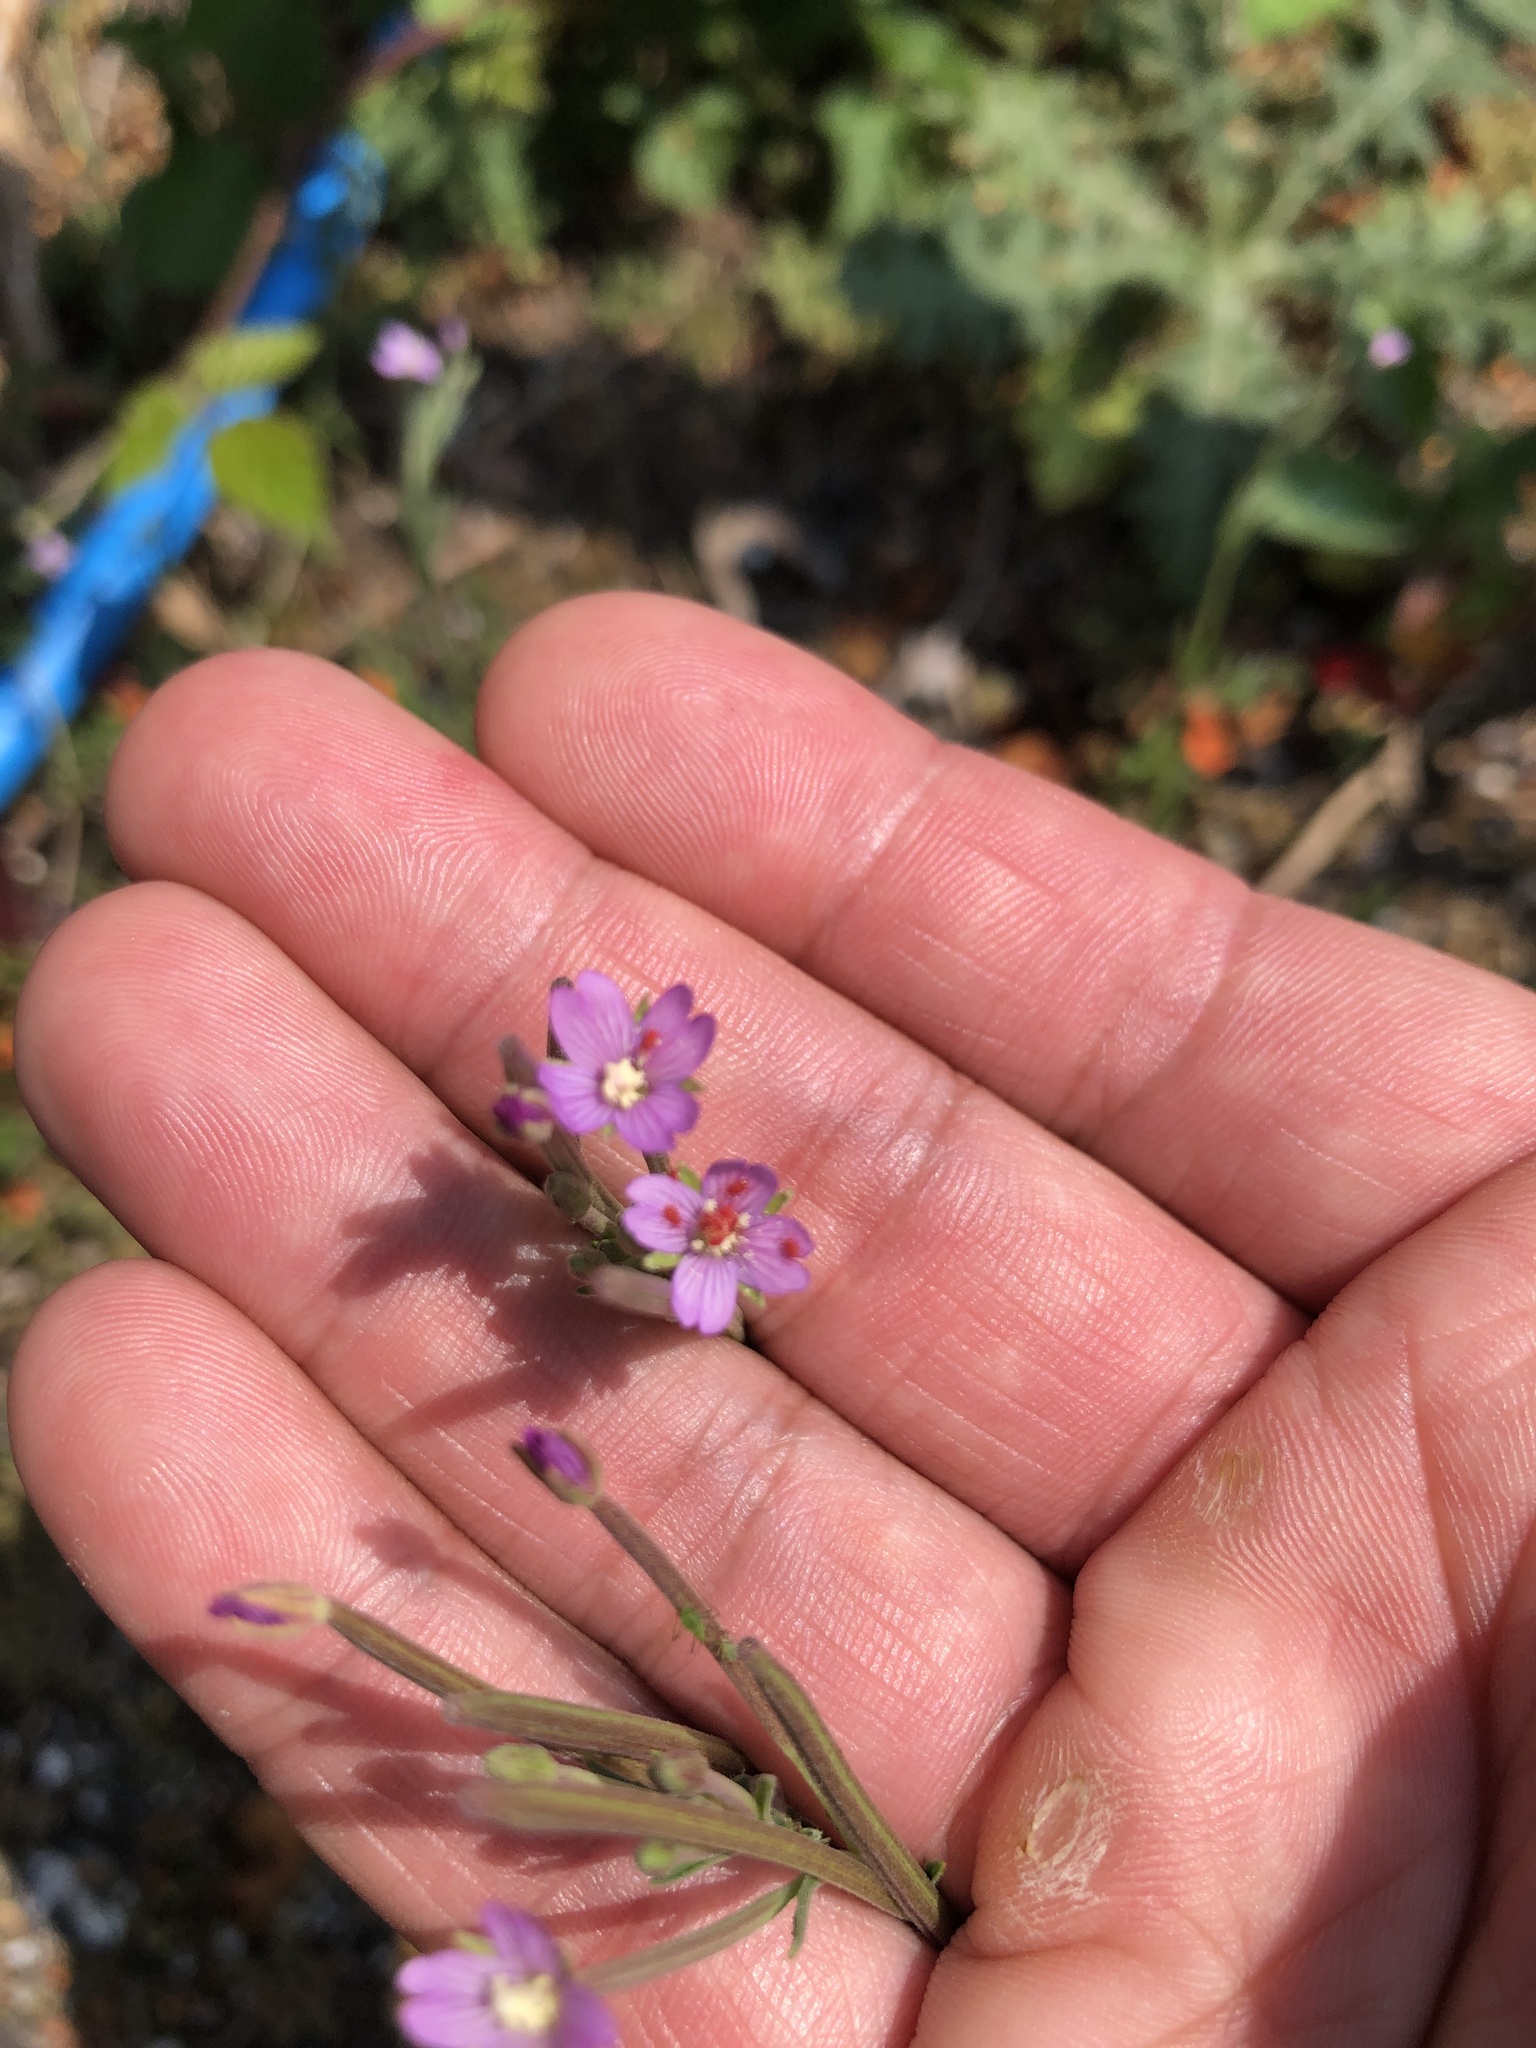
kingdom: Plantae
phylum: Tracheophyta
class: Magnoliopsida
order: Myrtales
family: Onagraceae
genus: Epilobium
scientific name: Epilobium hirsutum
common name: Great willowherb
